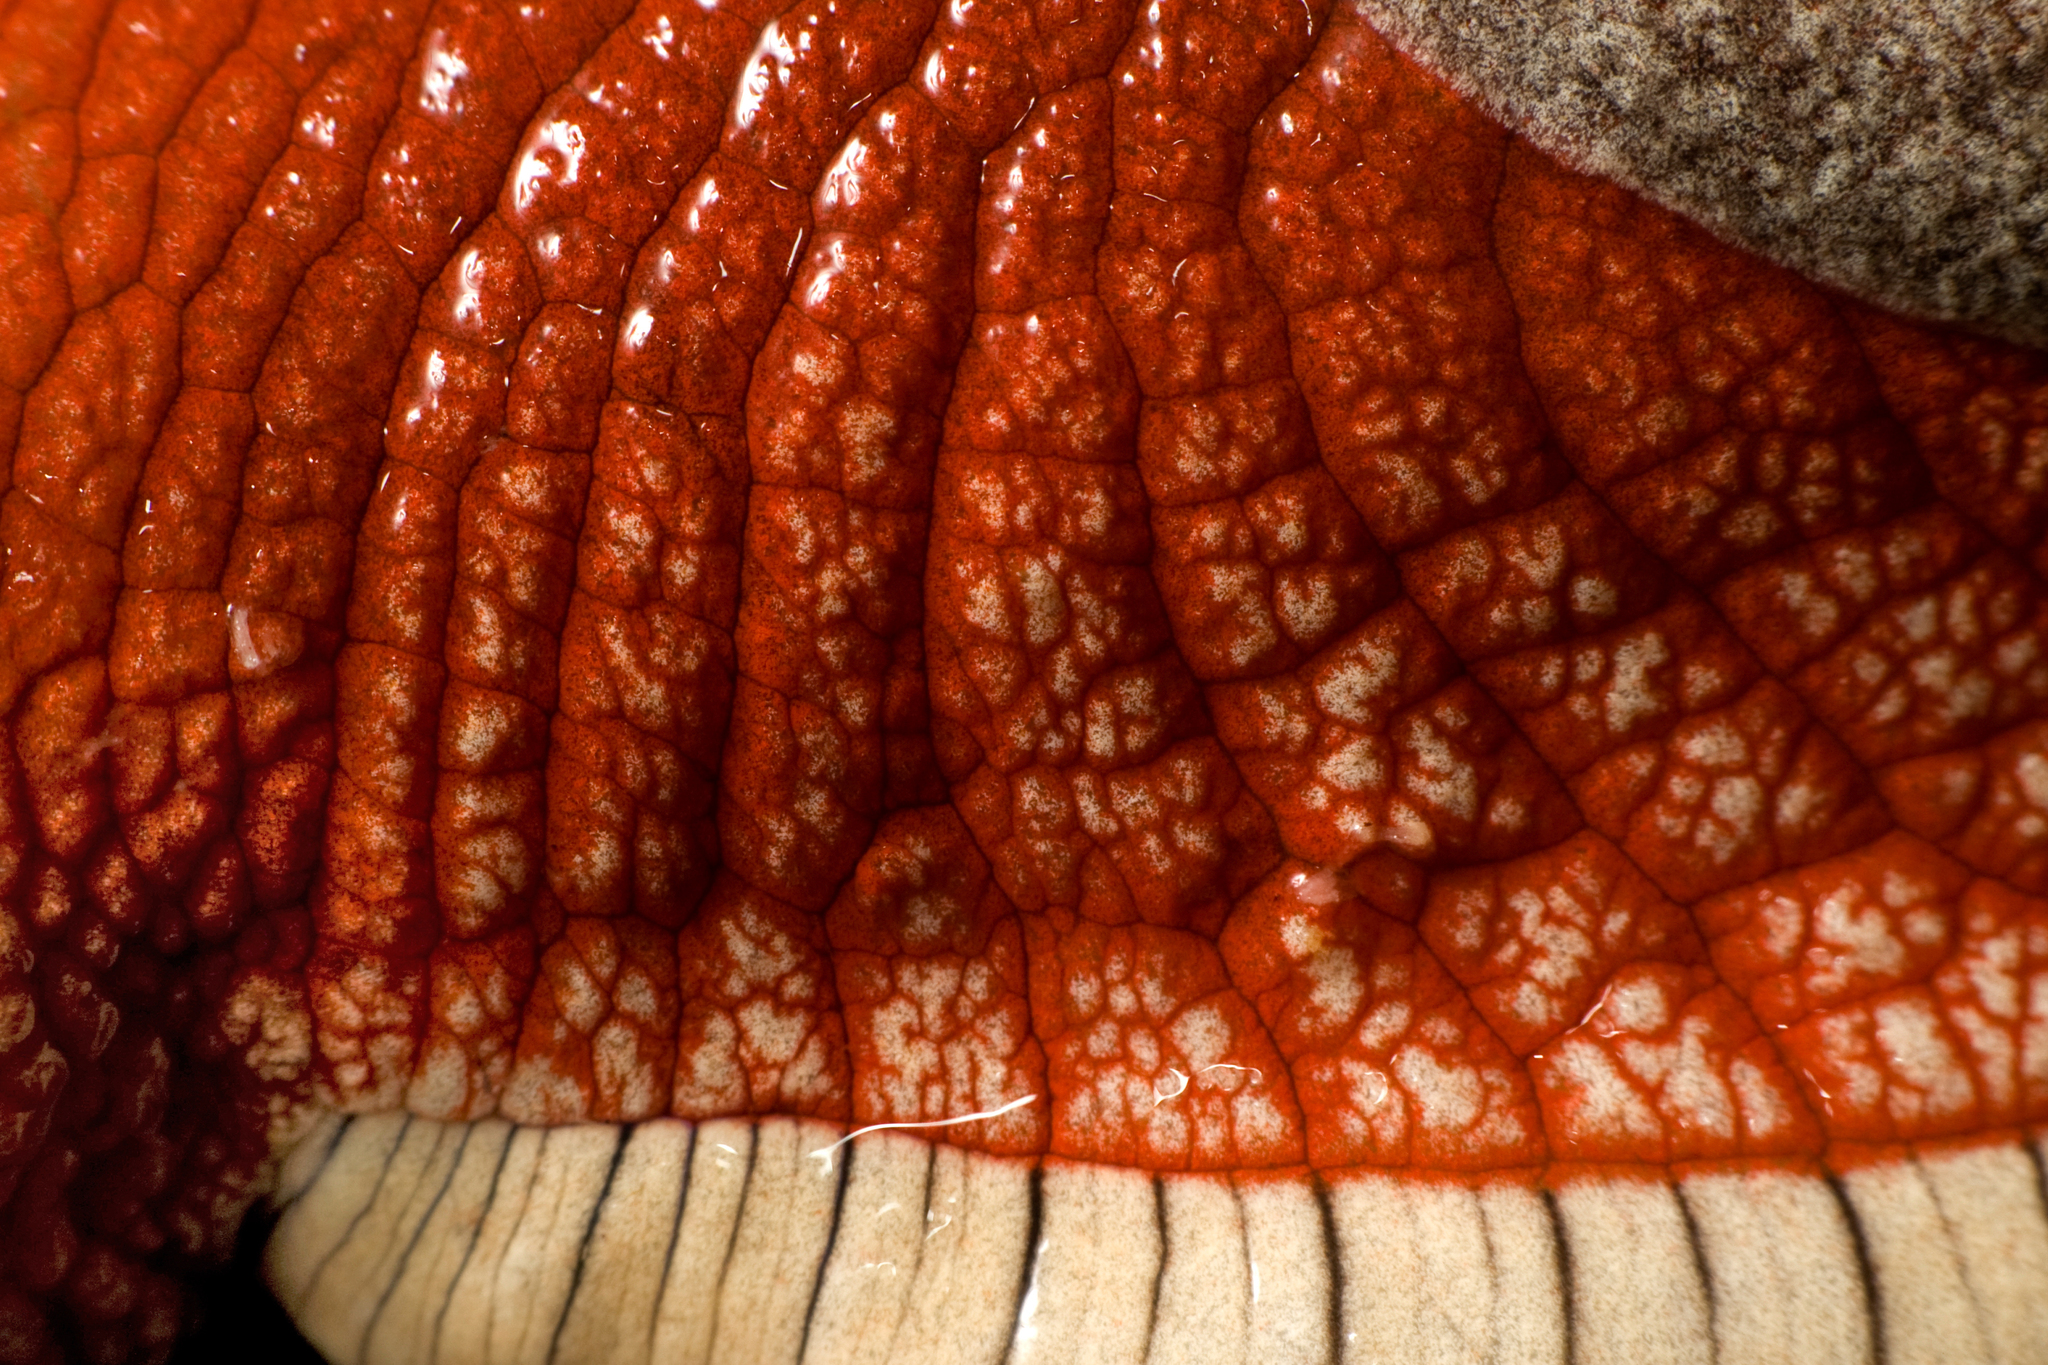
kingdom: Animalia
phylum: Mollusca
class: Gastropoda
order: Stylommatophora
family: Ariophantidae
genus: Indrella
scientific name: Indrella ampulla
